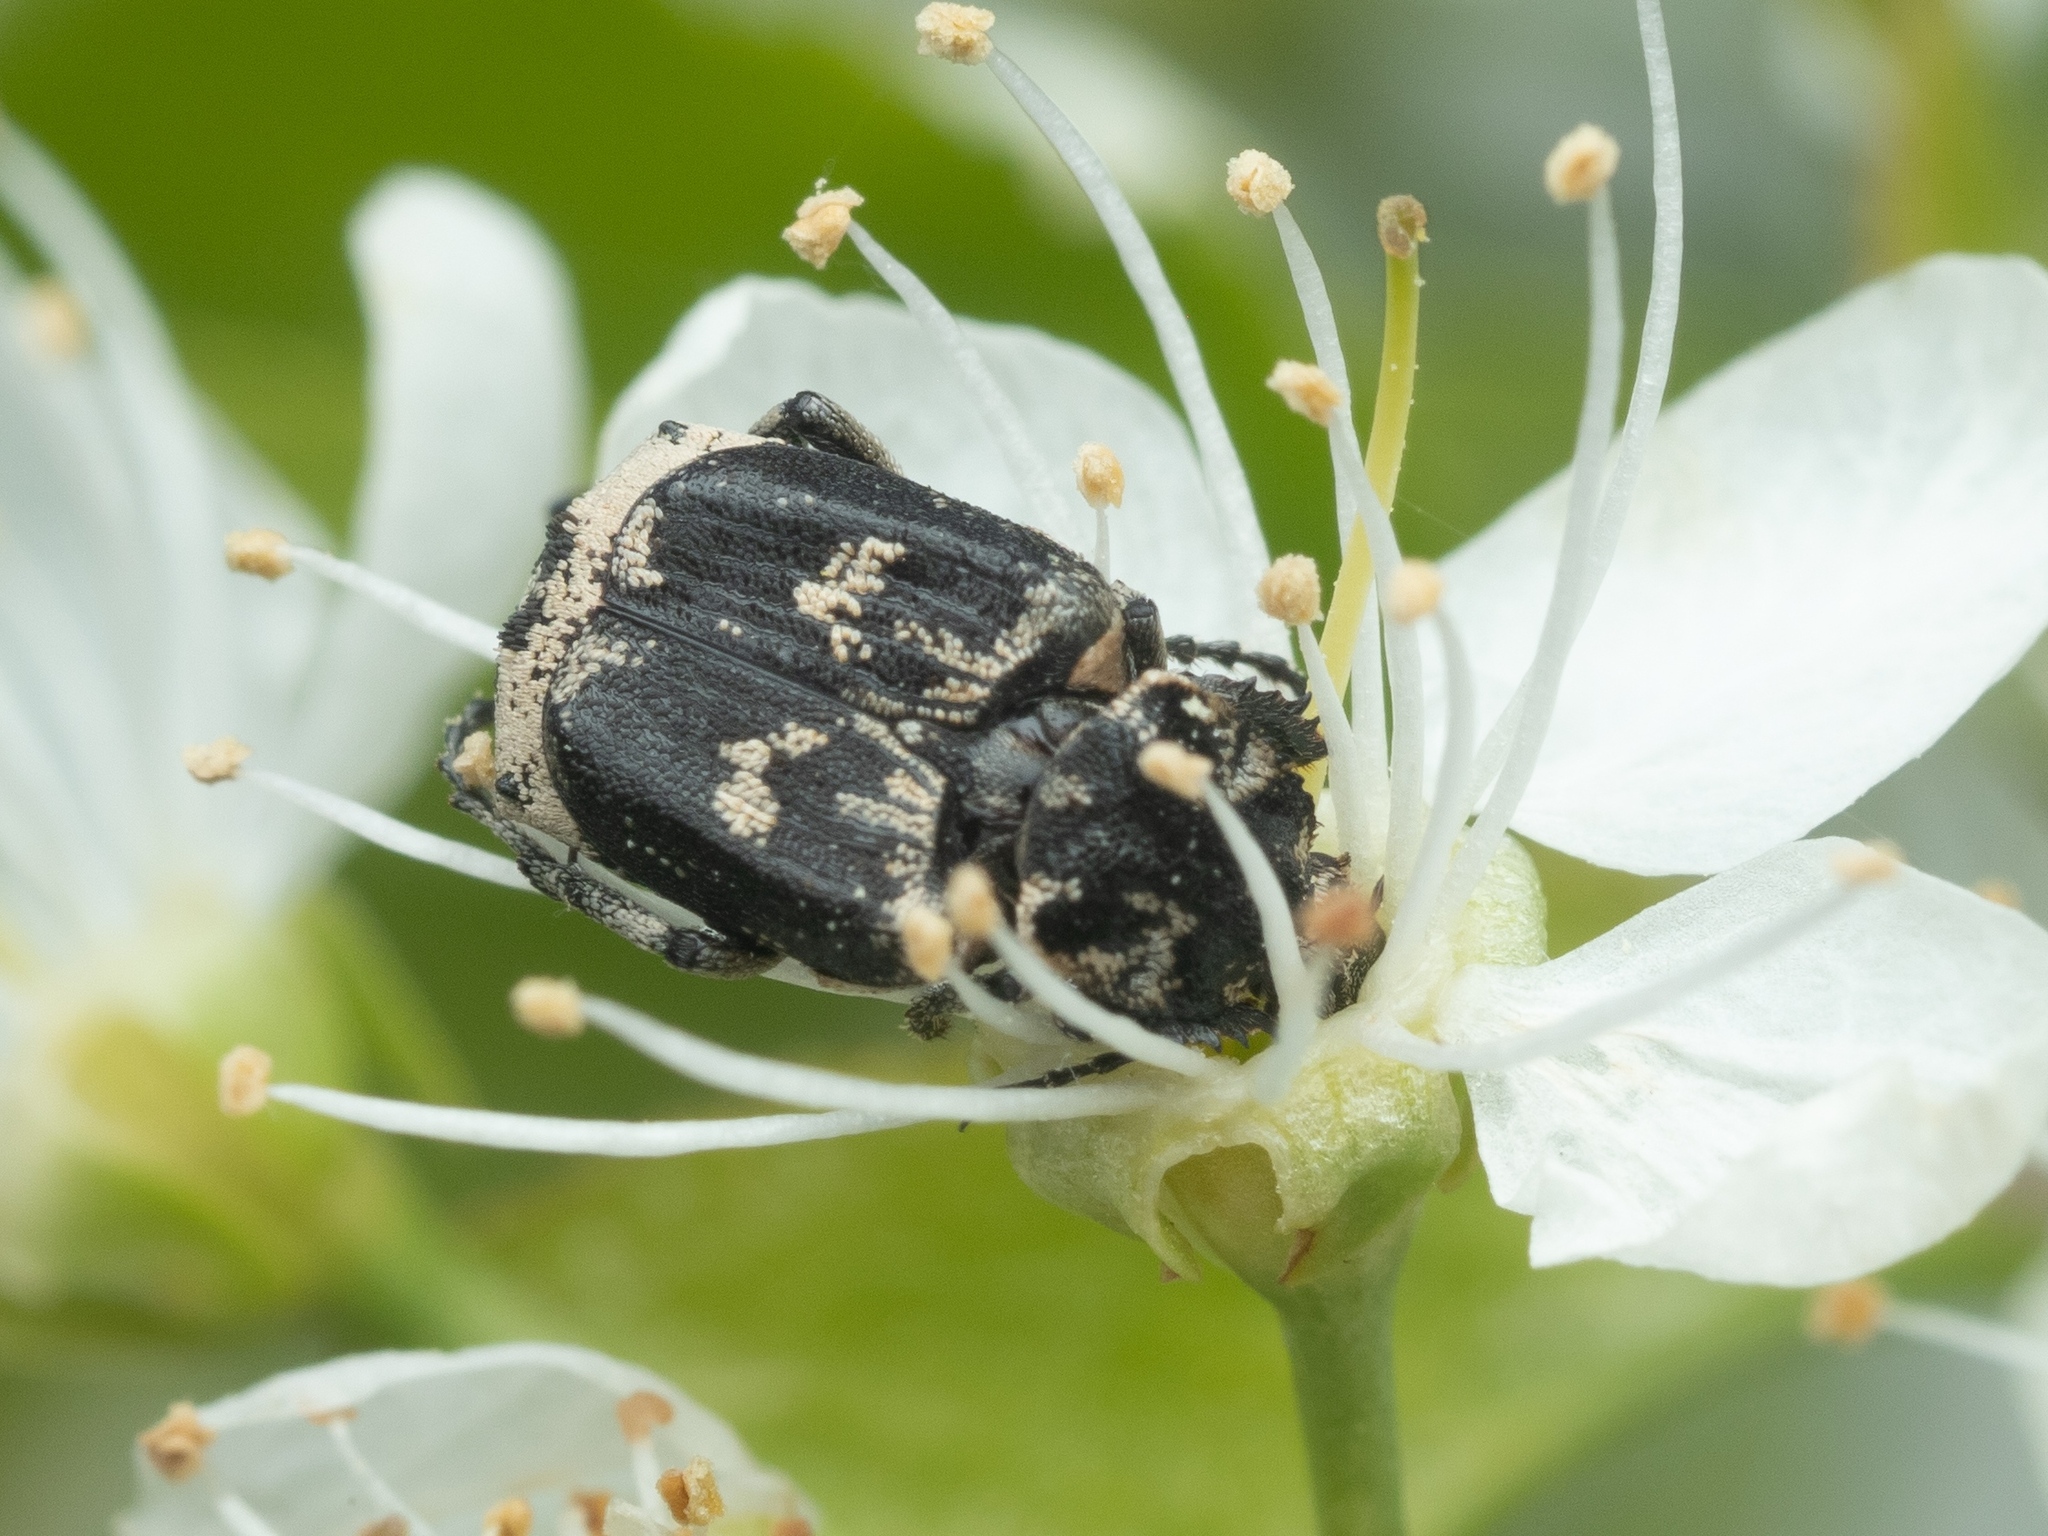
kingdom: Animalia
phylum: Arthropoda
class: Insecta
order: Coleoptera
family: Scarabaeidae
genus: Valgus
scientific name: Valgus hemipterus
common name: Bug flower chafer
